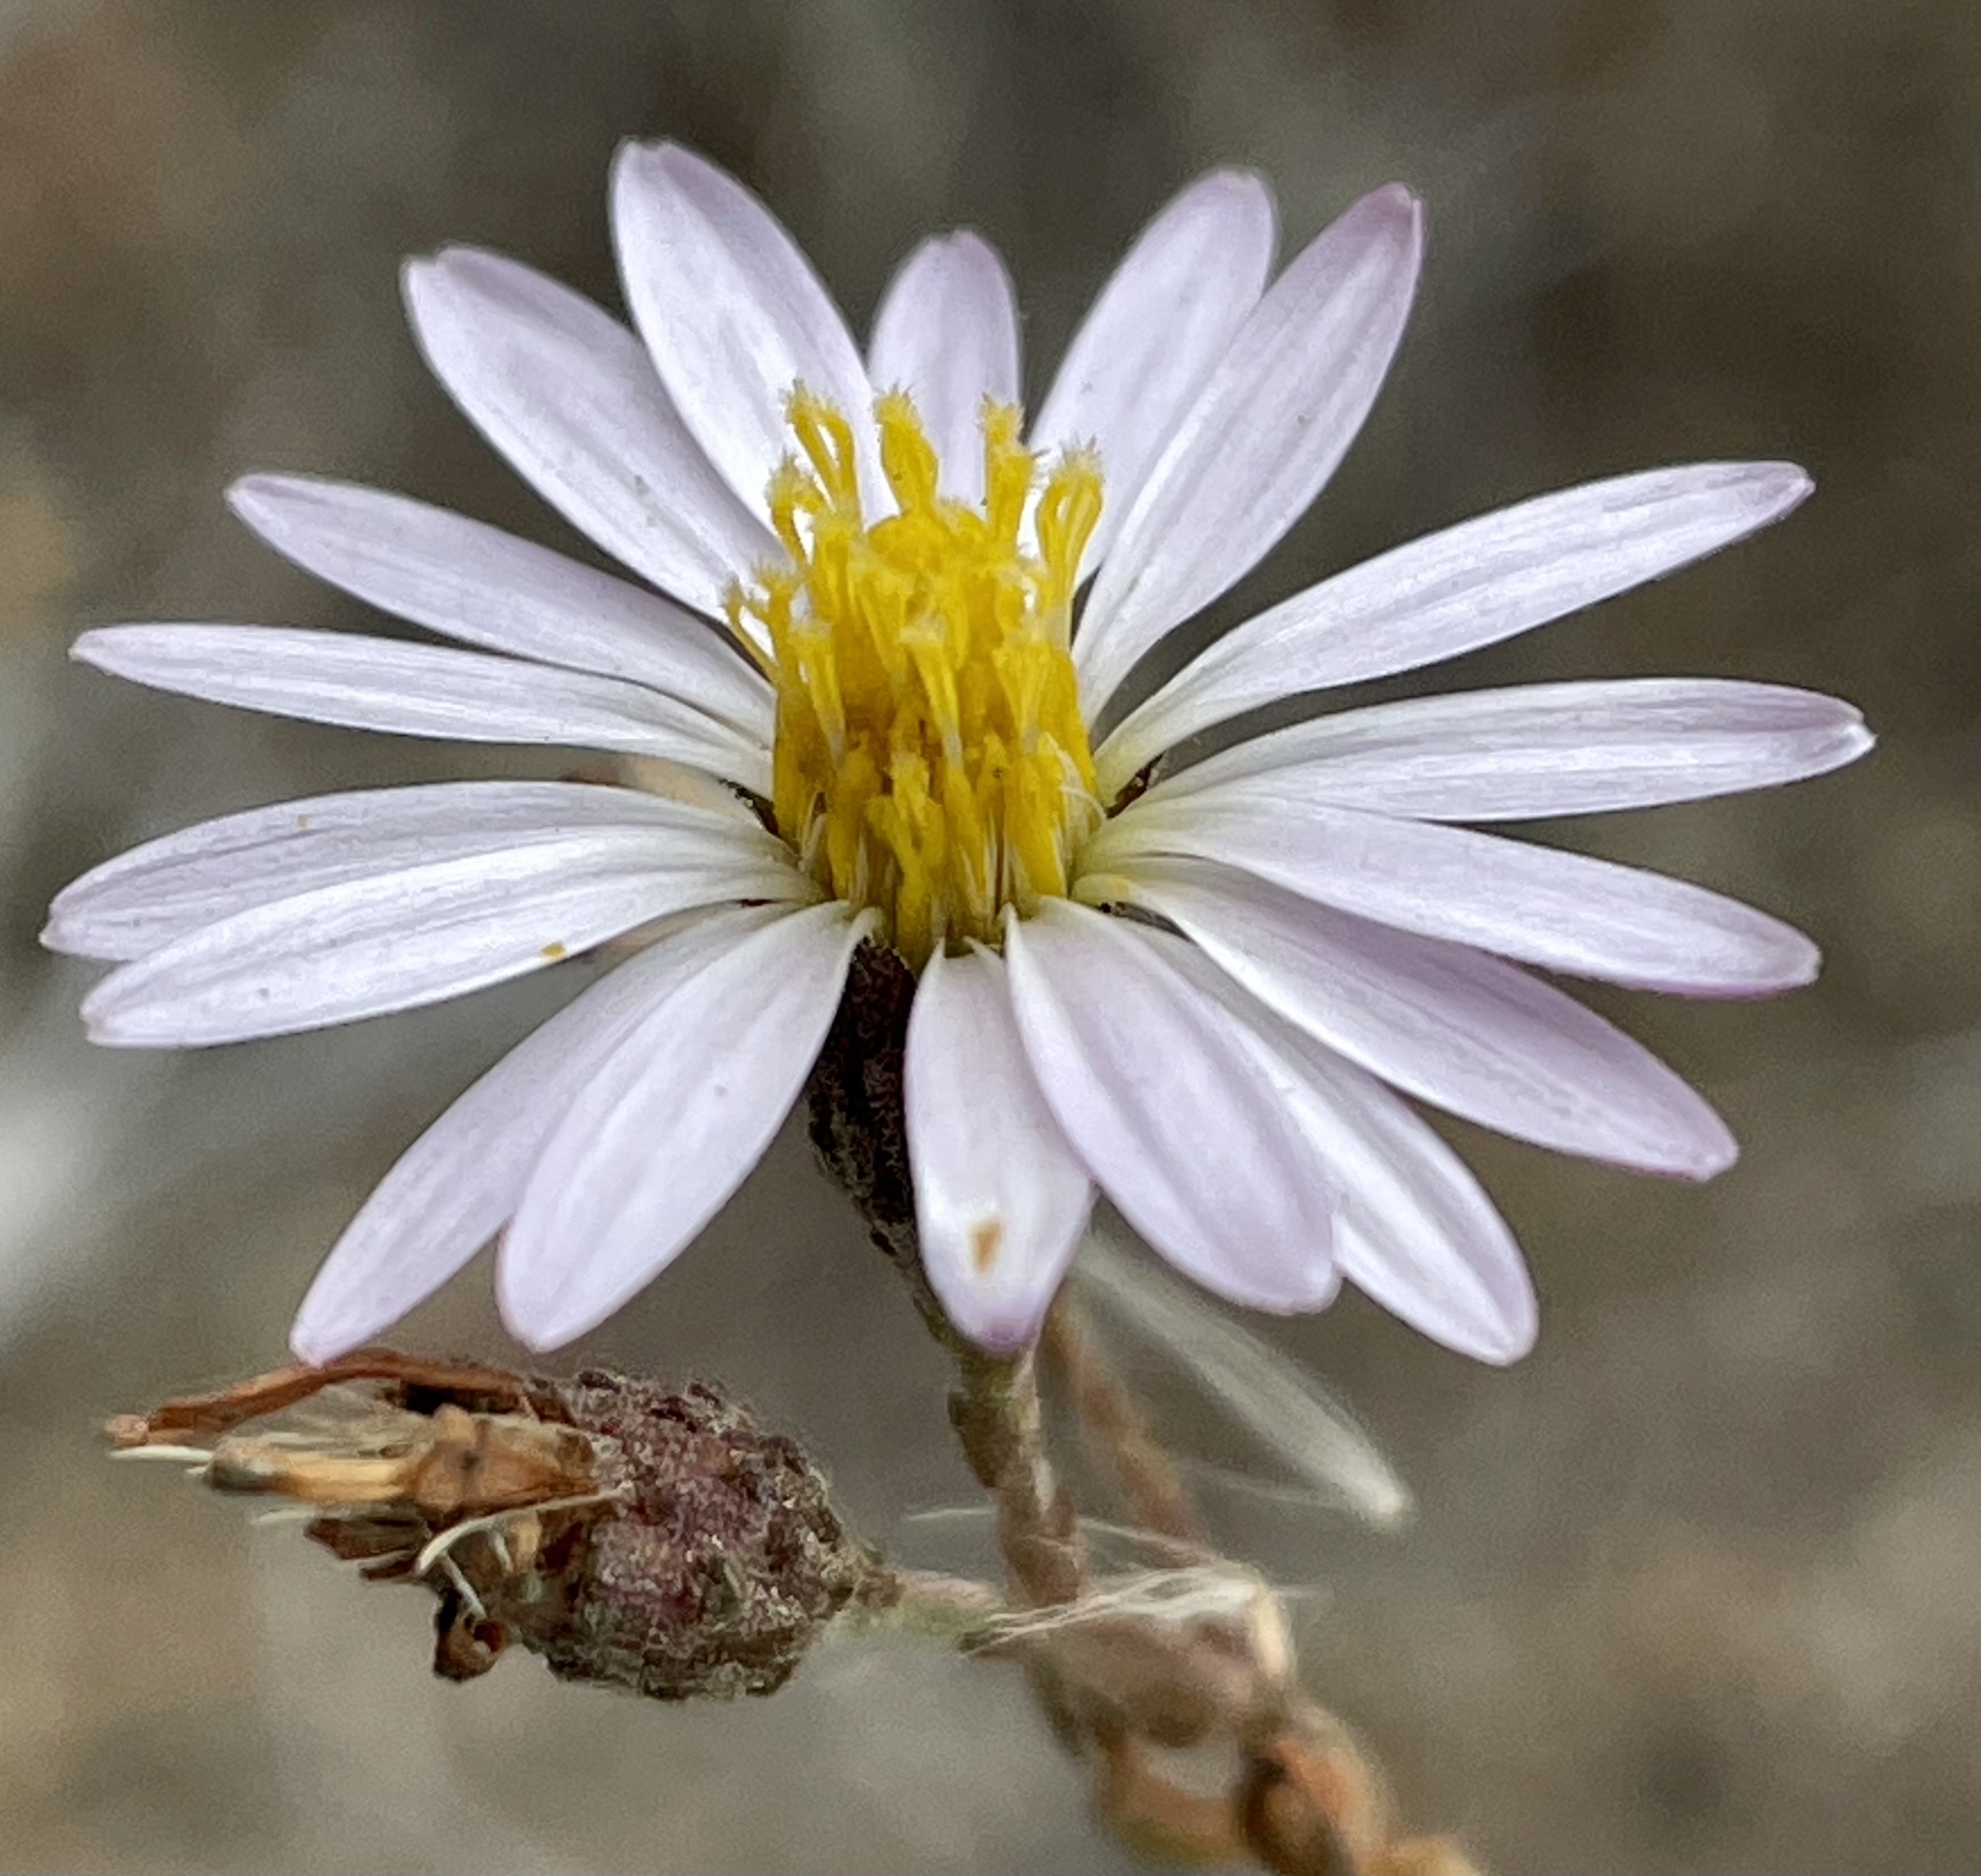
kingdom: Plantae
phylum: Tracheophyta
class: Magnoliopsida
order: Asterales
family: Asteraceae
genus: Corethrogyne
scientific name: Corethrogyne filaginifolia
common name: Sand-aster
